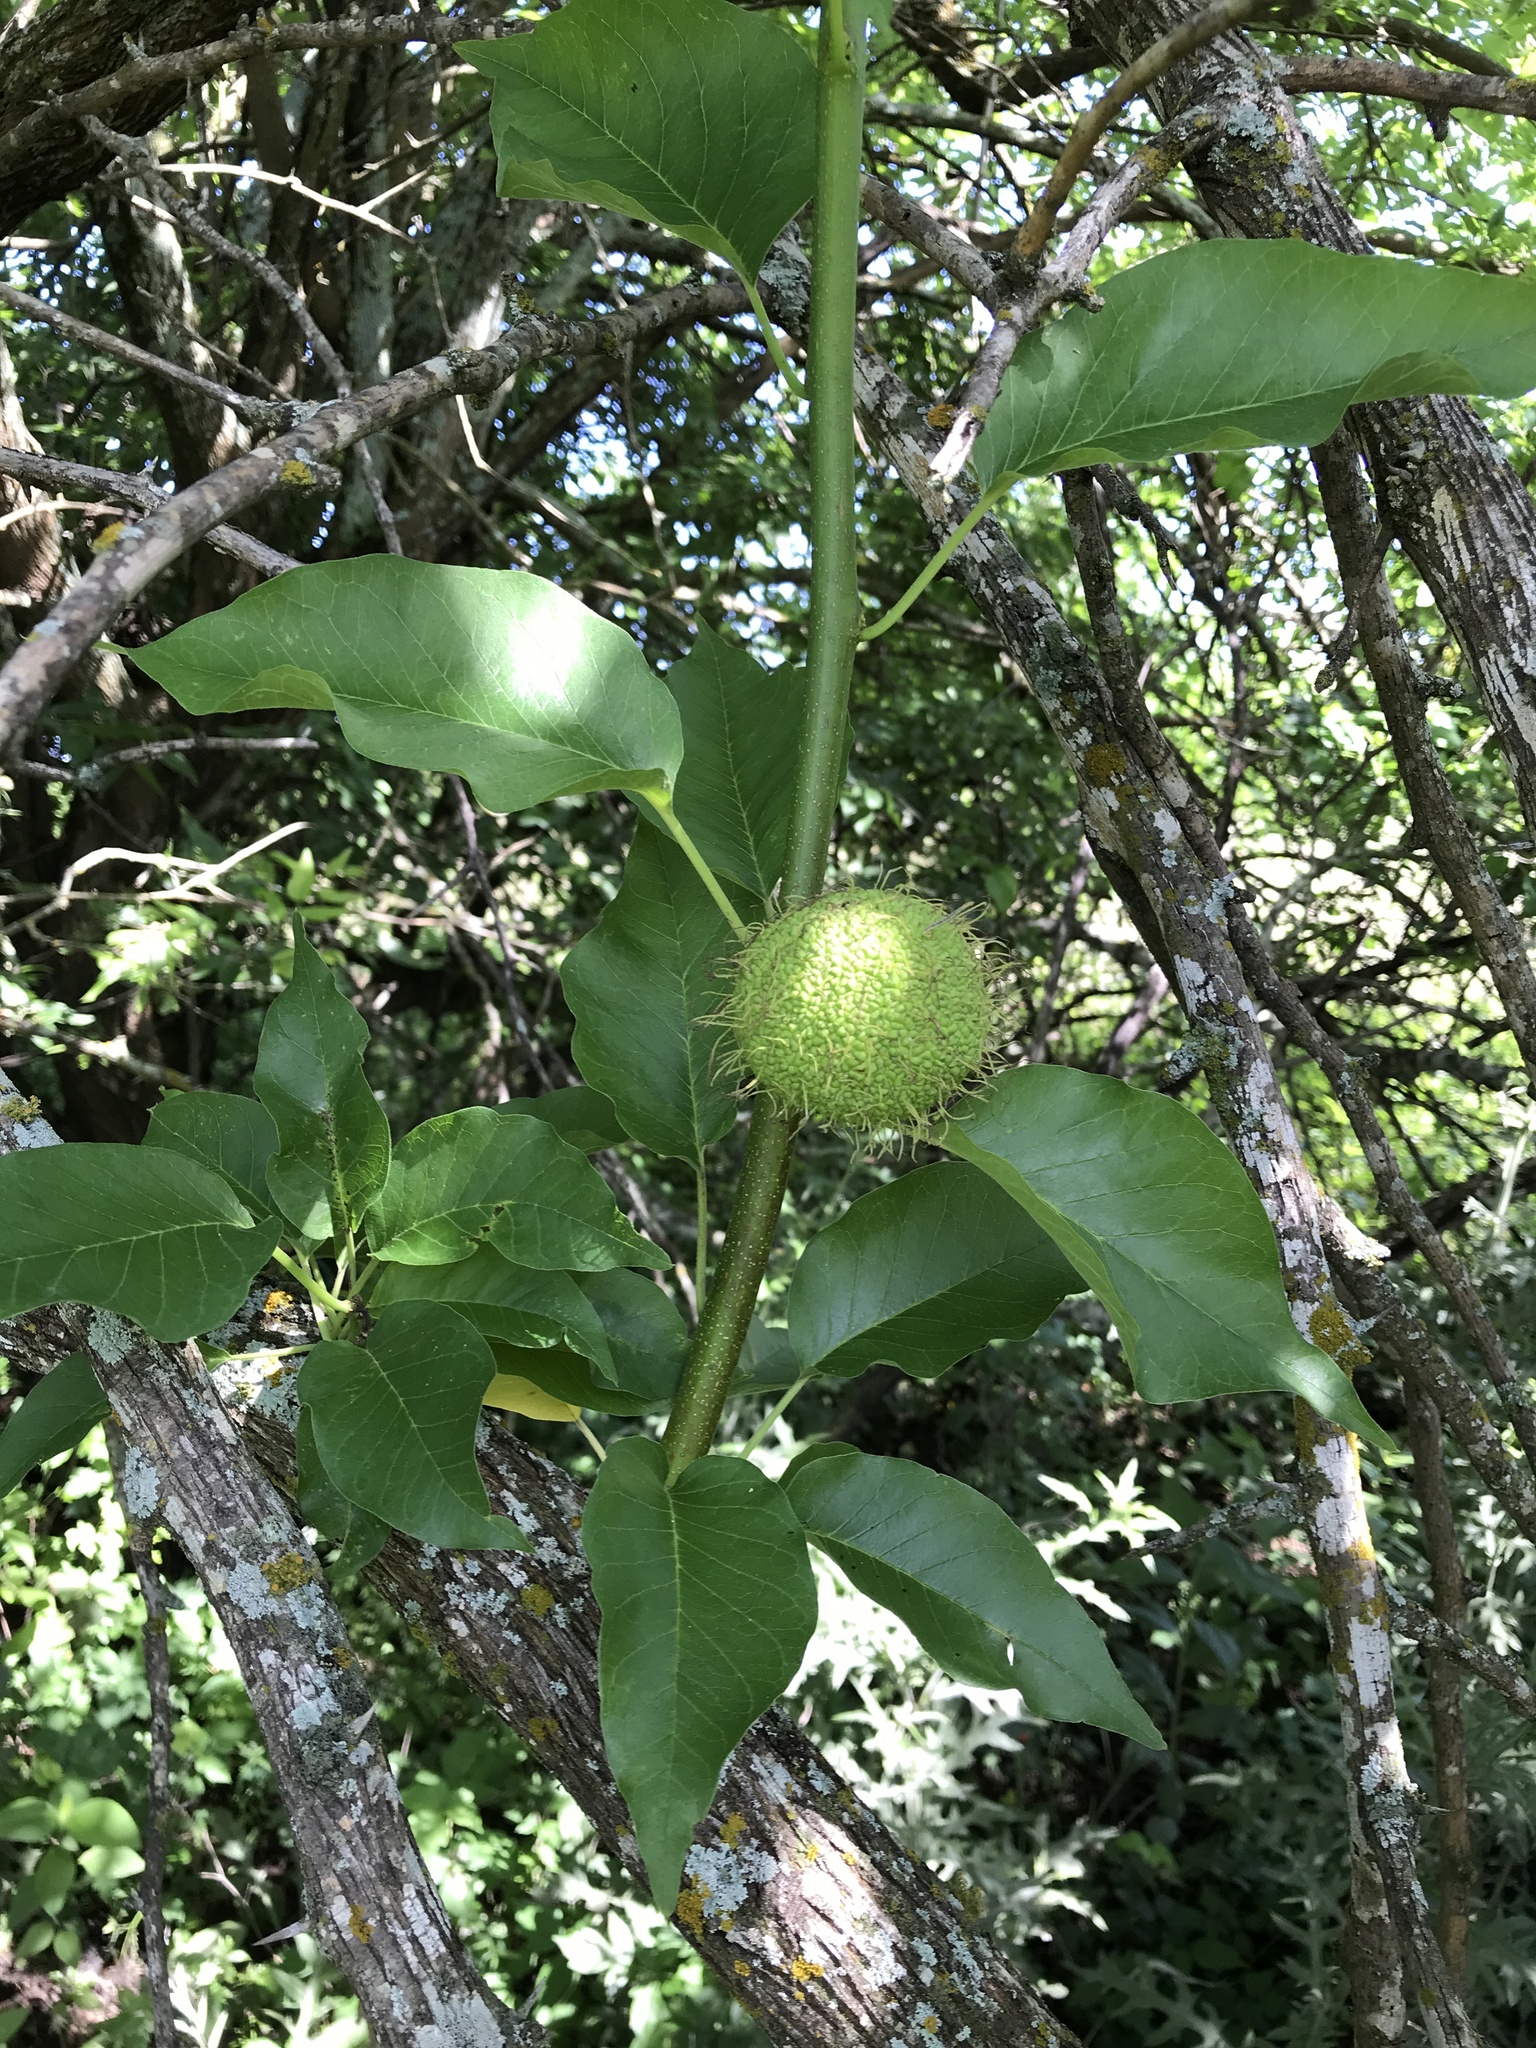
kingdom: Plantae
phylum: Tracheophyta
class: Magnoliopsida
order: Rosales
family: Moraceae
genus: Maclura
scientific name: Maclura pomifera
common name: Osage-orange
